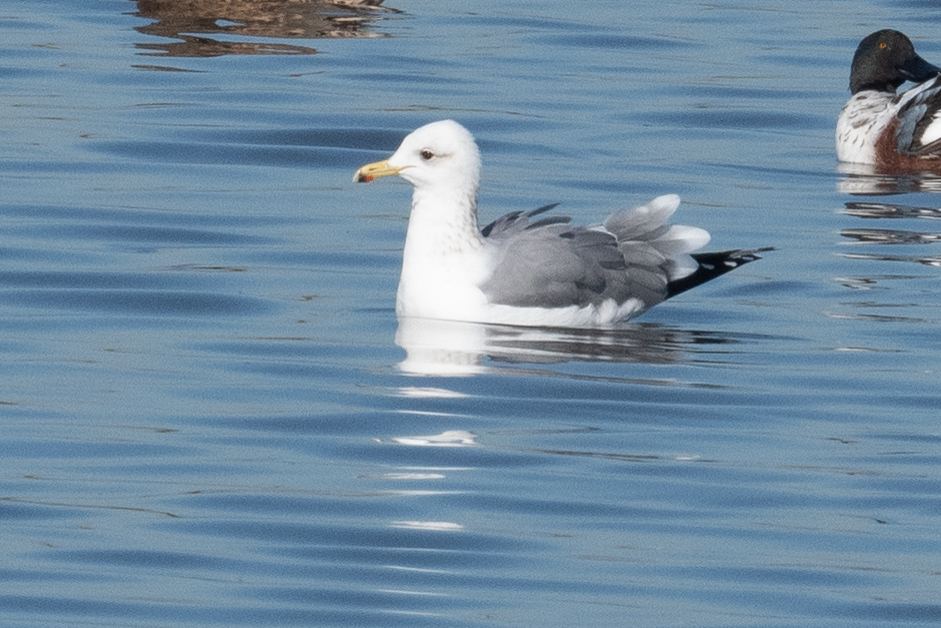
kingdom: Animalia
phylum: Chordata
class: Aves
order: Charadriiformes
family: Laridae
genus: Larus
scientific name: Larus californicus
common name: California gull
